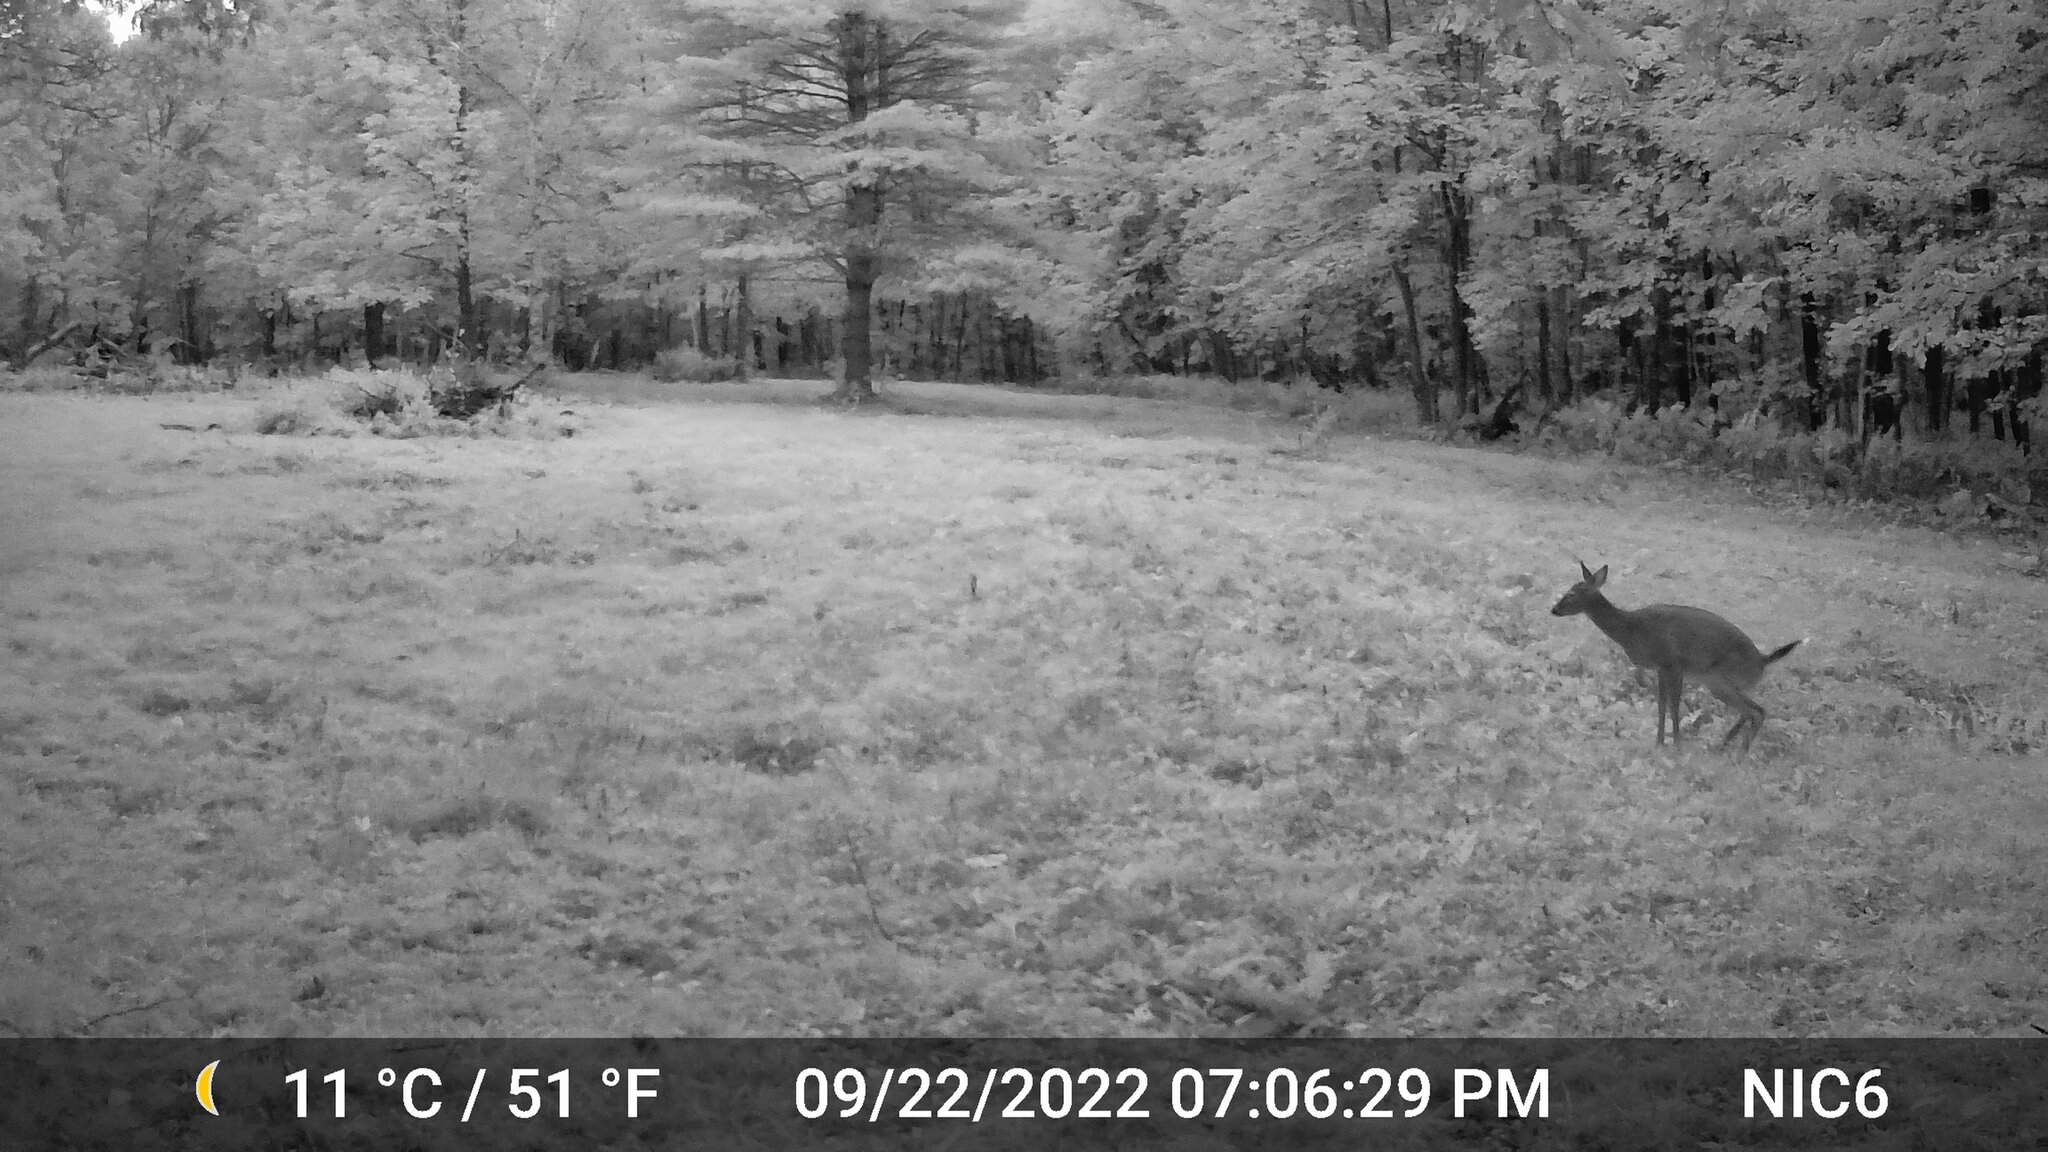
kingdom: Animalia
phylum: Chordata
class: Mammalia
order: Artiodactyla
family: Cervidae
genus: Odocoileus
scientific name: Odocoileus virginianus
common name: White-tailed deer
